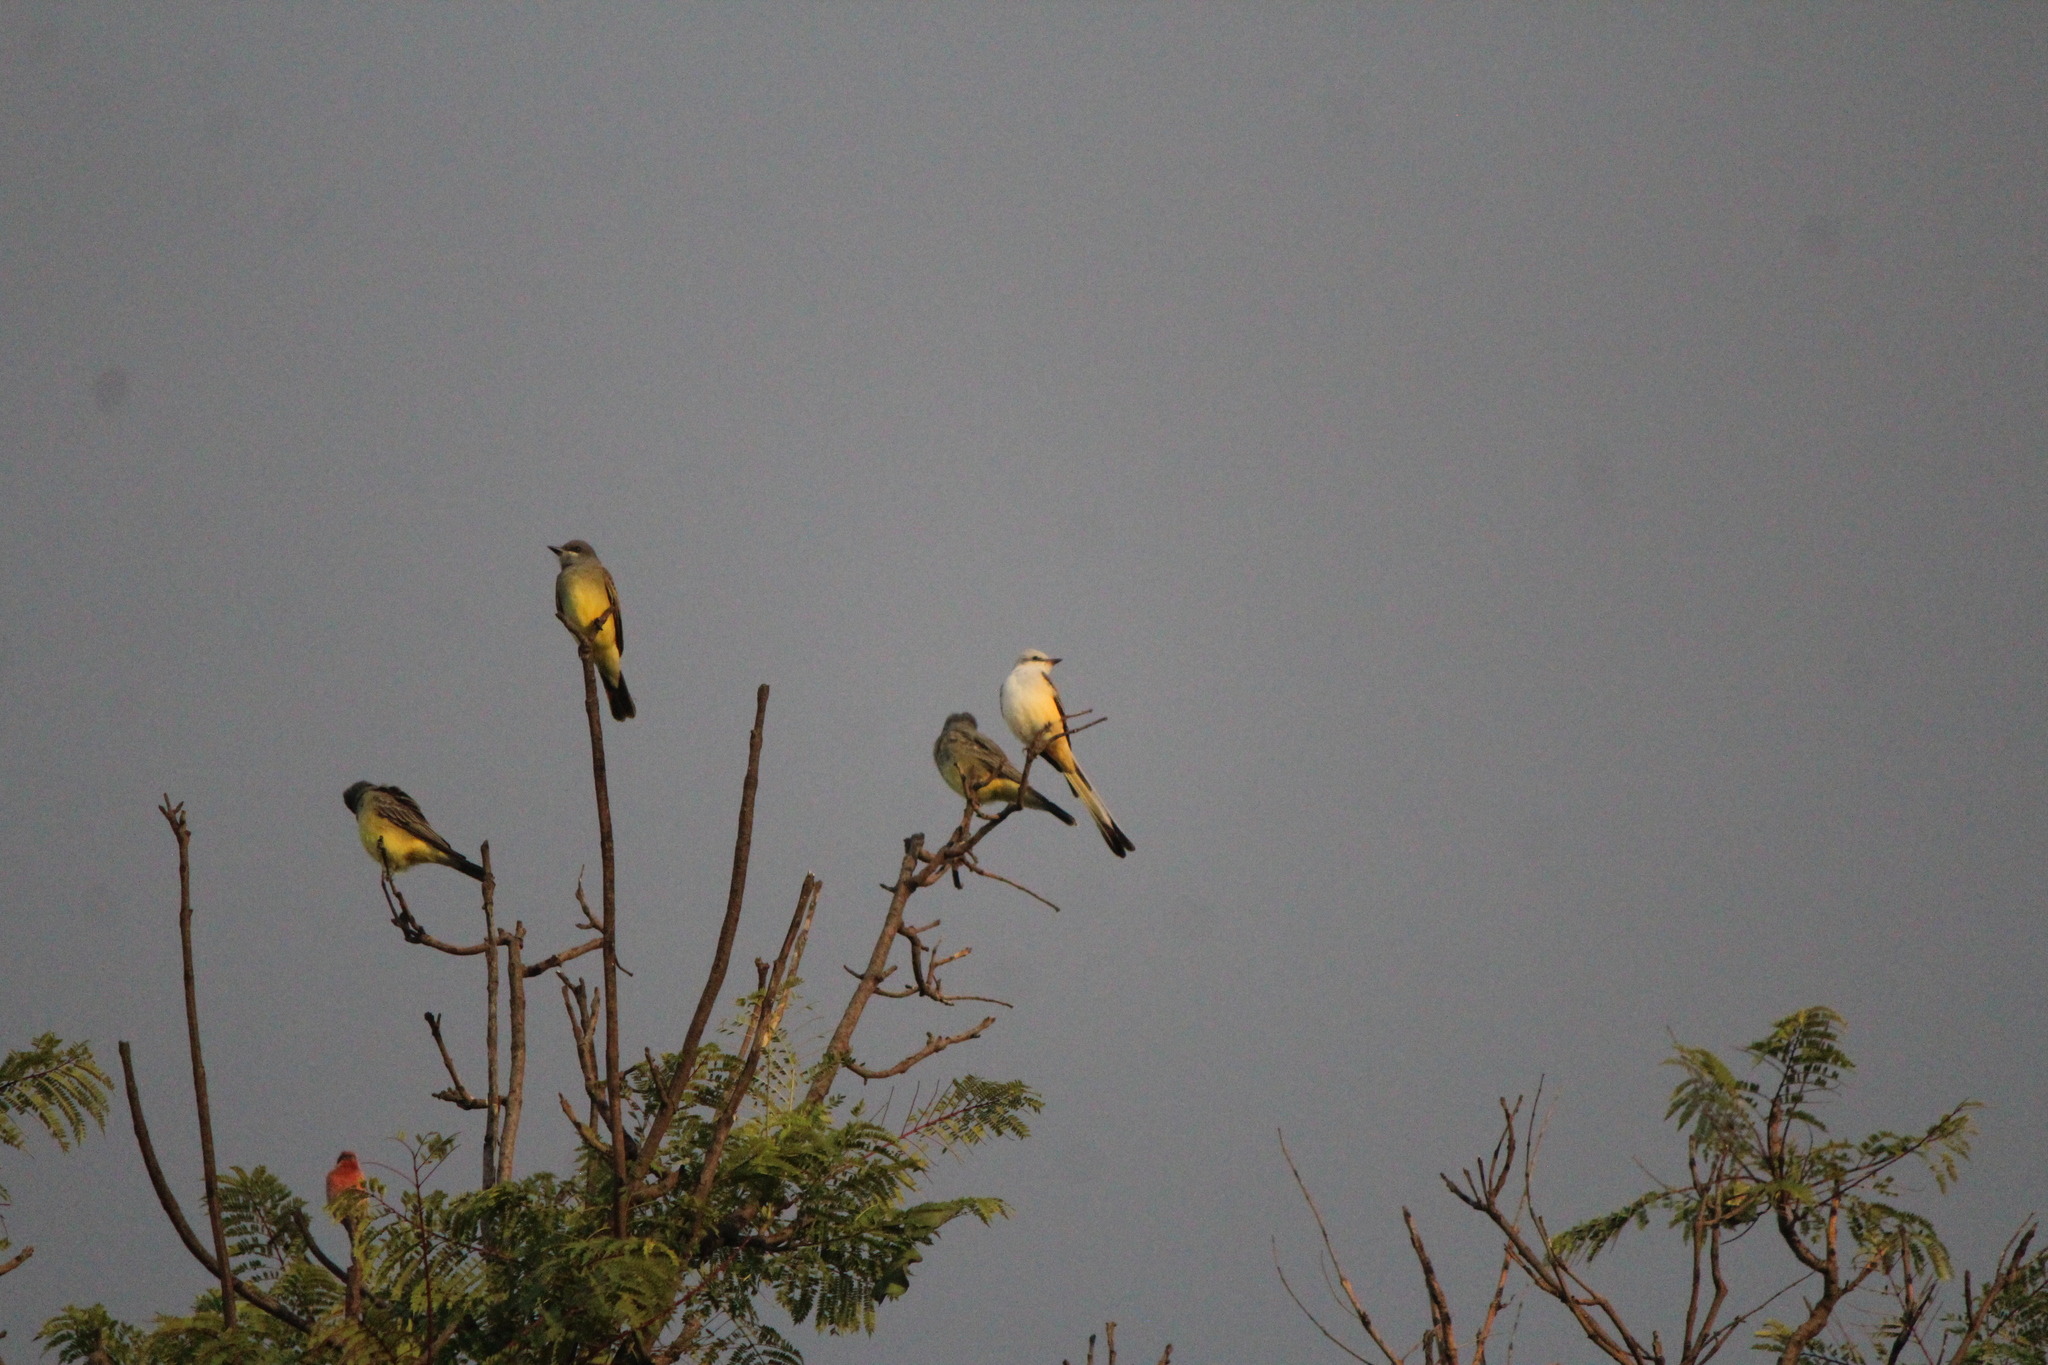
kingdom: Animalia
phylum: Chordata
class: Aves
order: Passeriformes
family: Tyrannidae
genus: Tyrannus
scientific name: Tyrannus vociferans
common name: Cassin's kingbird
